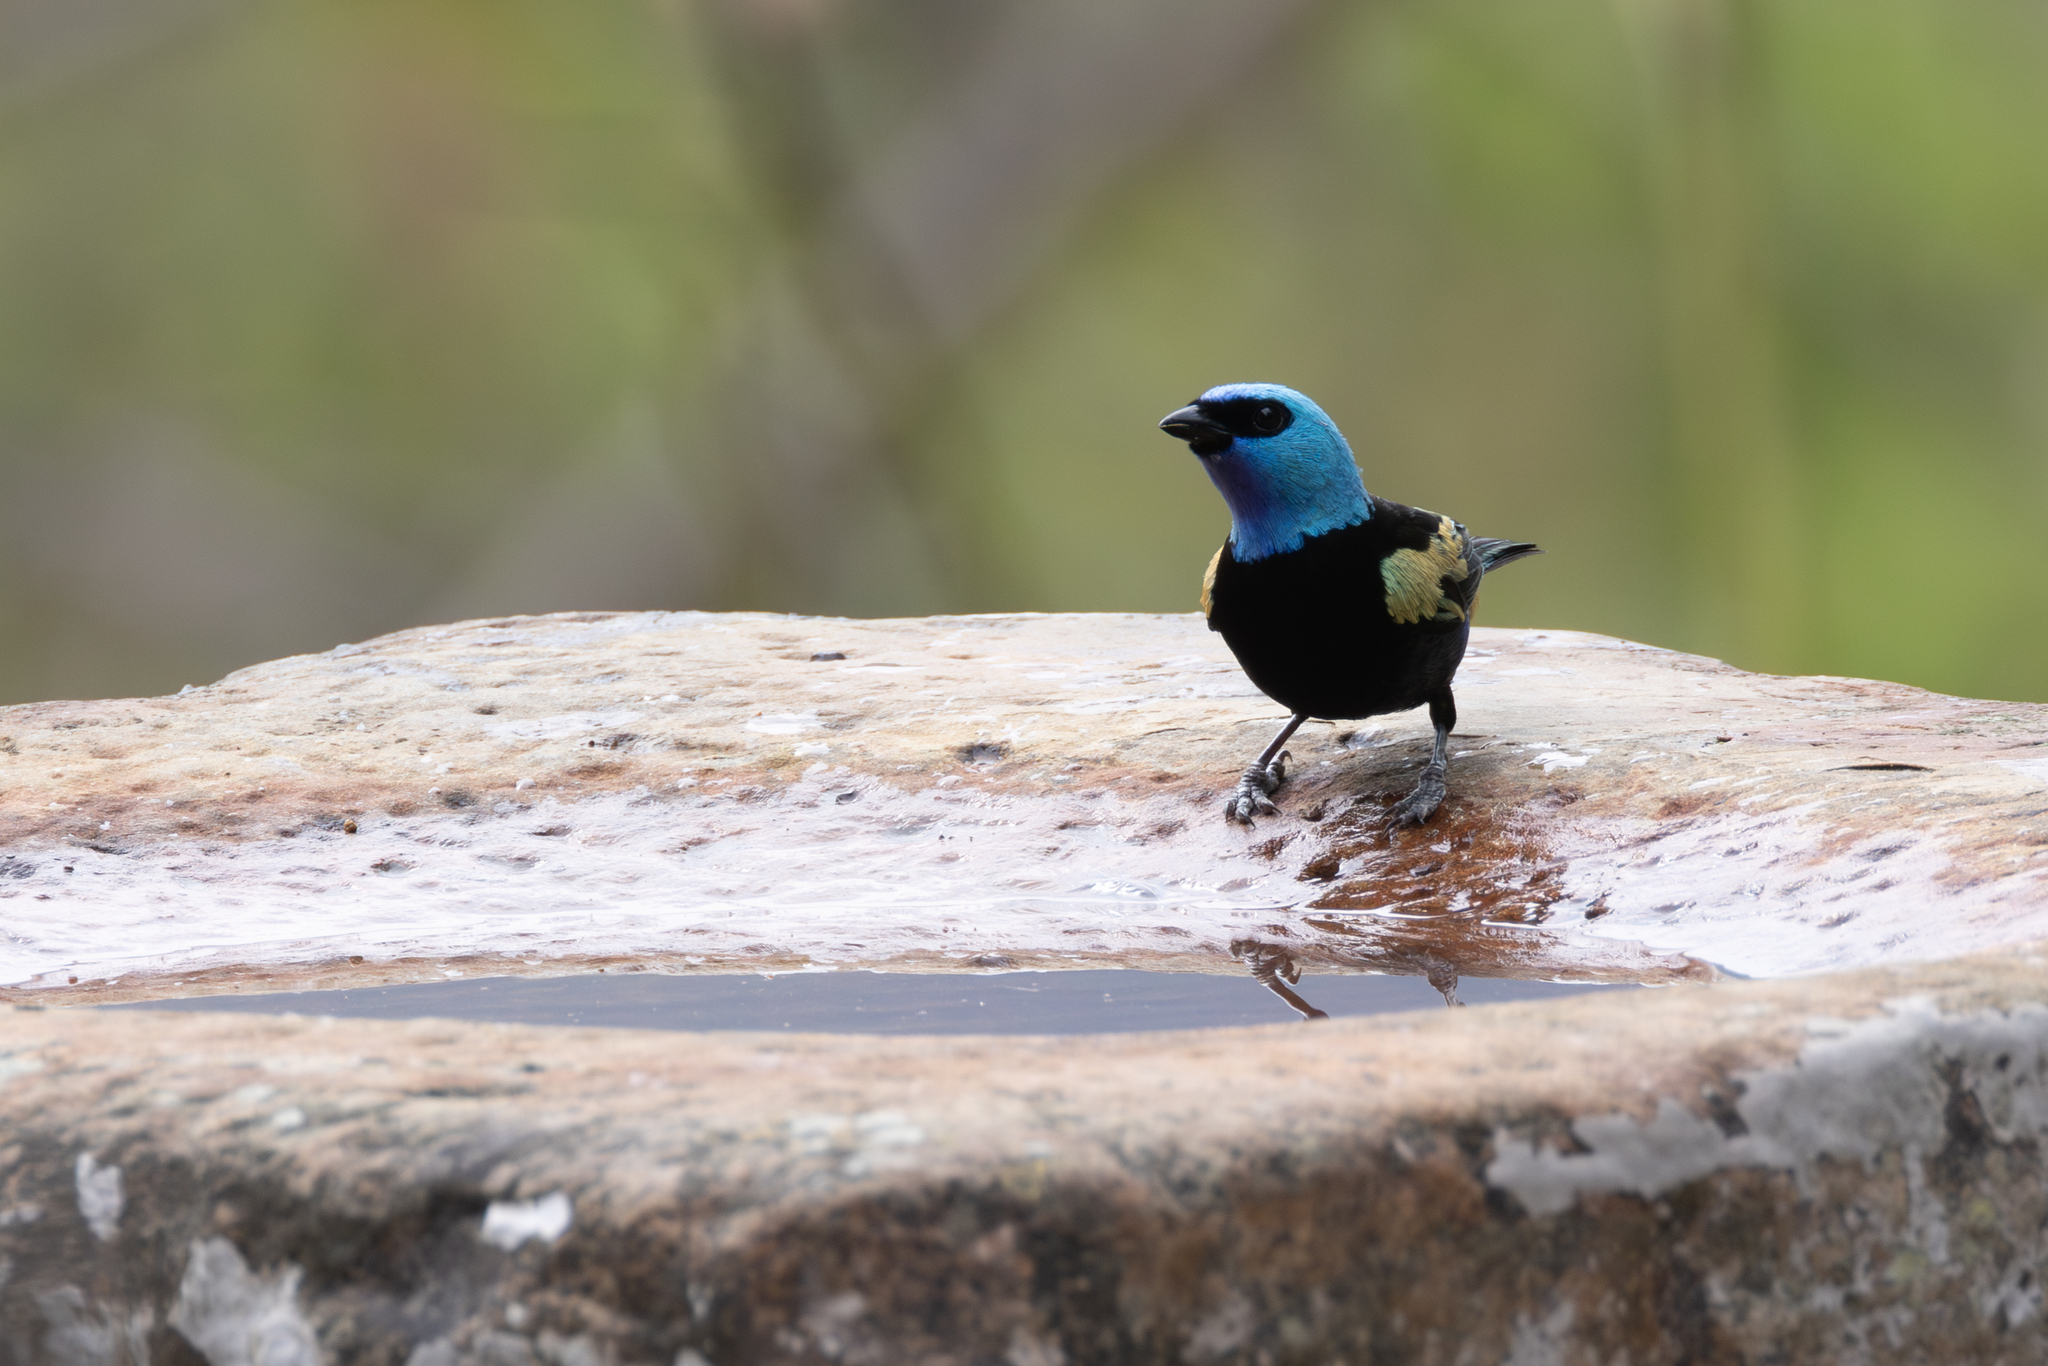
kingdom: Animalia
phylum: Chordata
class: Aves
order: Passeriformes
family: Thraupidae
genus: Stilpnia
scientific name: Stilpnia cyanicollis
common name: Blue-necked tanager
